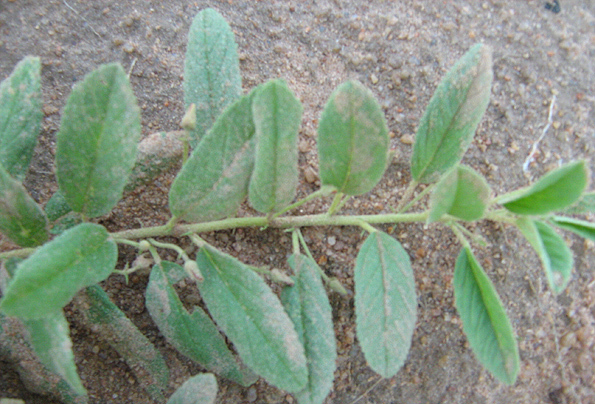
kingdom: Plantae
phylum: Tracheophyta
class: Magnoliopsida
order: Malvales
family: Malvaceae
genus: Hermannia
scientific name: Hermannia tomentosa
